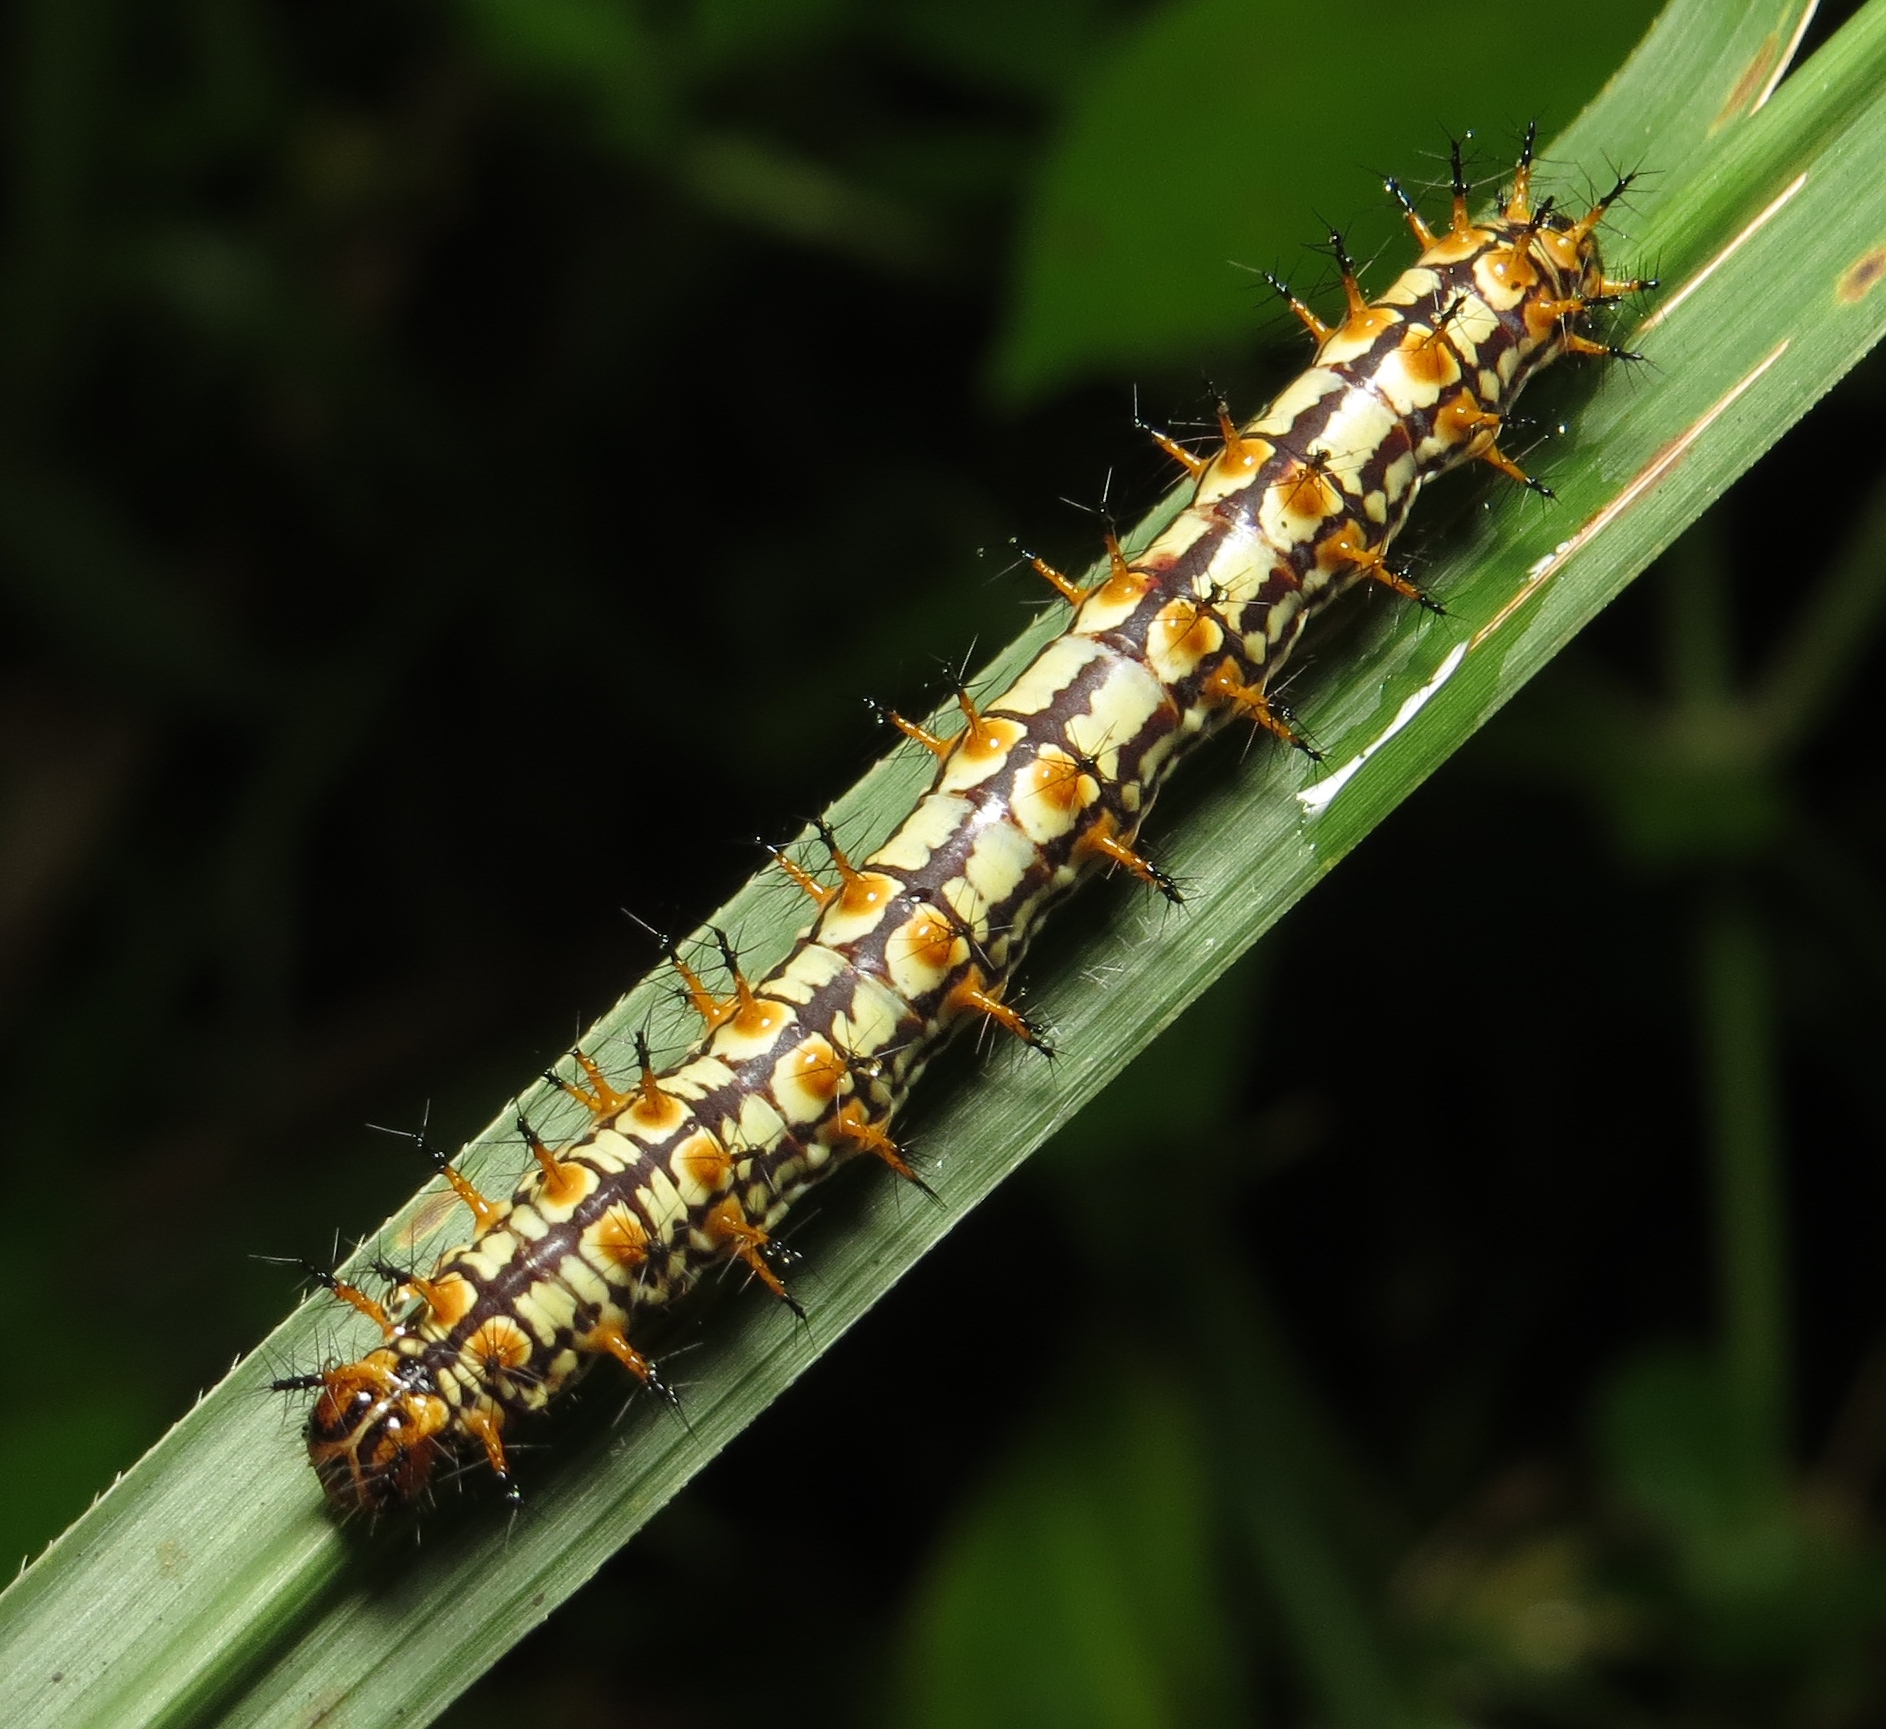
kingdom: Animalia
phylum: Arthropoda
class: Insecta
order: Lepidoptera
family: Nymphalidae
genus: Acraea
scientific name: Acraea Telchinia issoria
